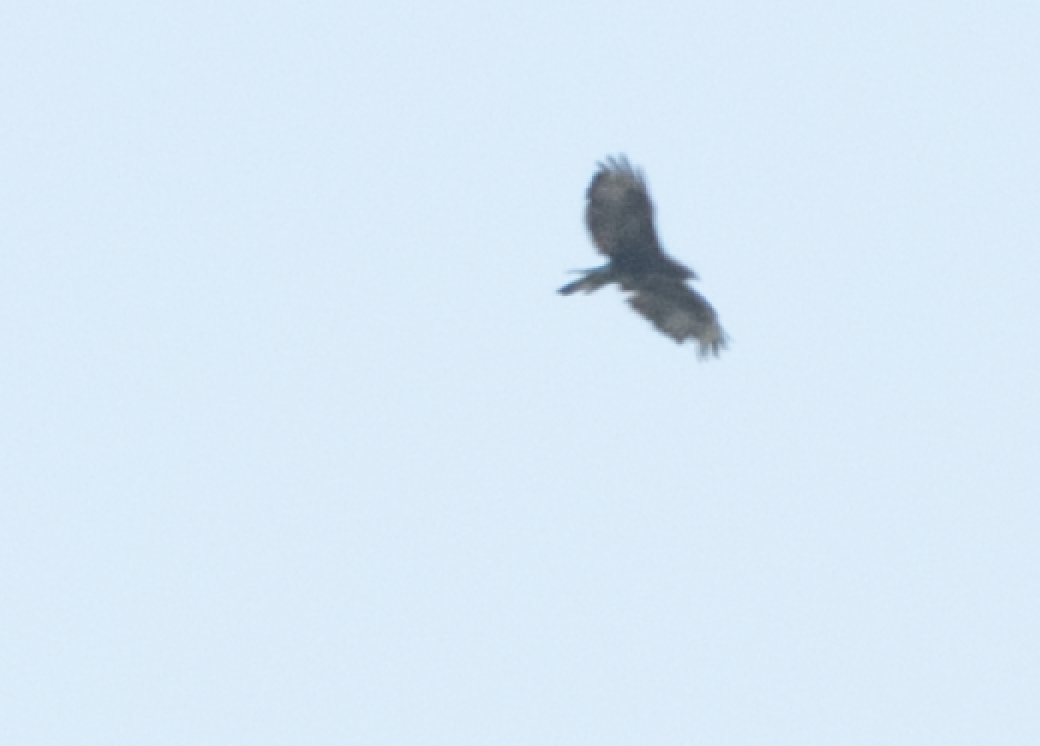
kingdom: Animalia
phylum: Chordata
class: Aves
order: Accipitriformes
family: Accipitridae
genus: Buteo
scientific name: Buteo buteo
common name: Common buzzard
